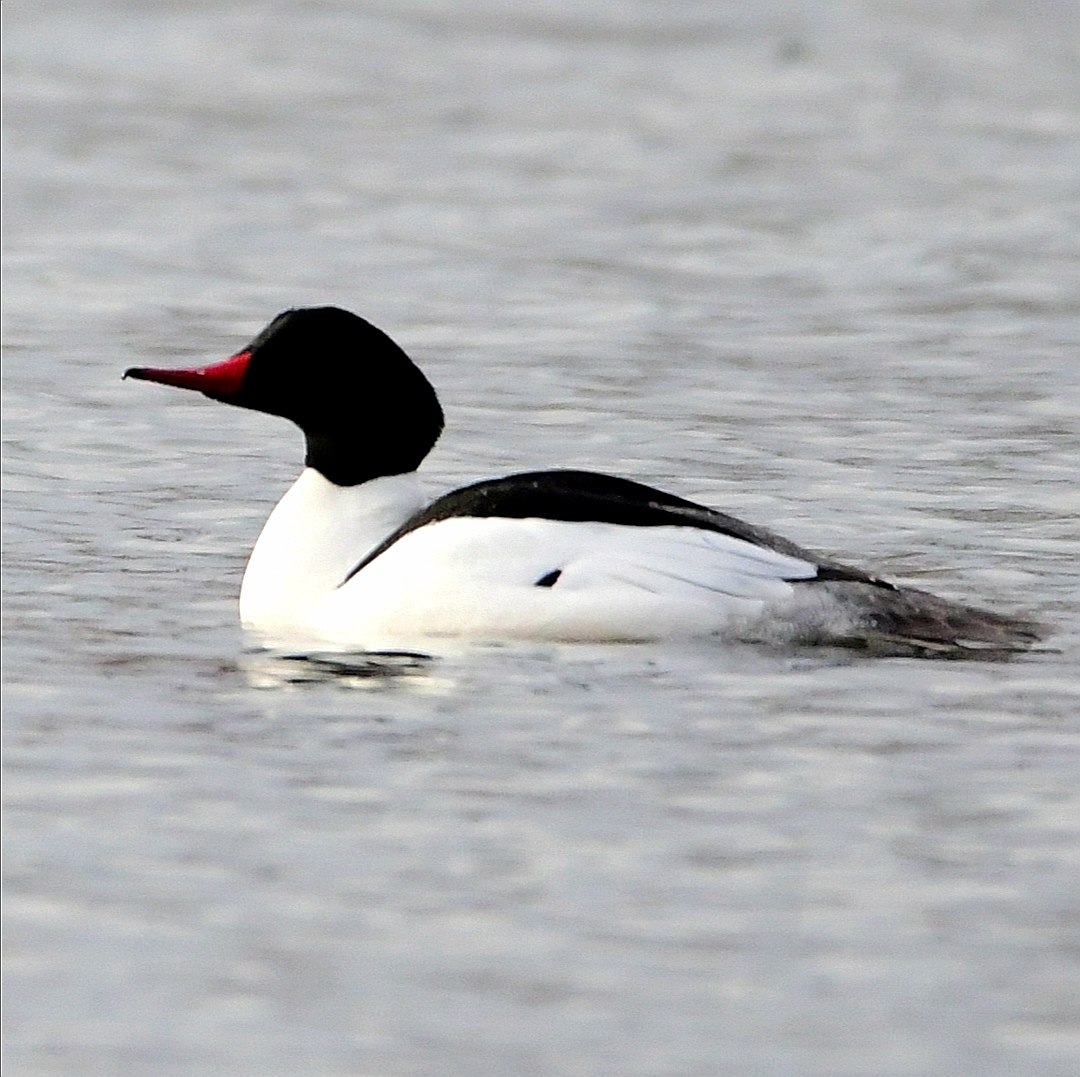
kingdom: Animalia
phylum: Chordata
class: Aves
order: Anseriformes
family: Anatidae
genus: Mergus
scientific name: Mergus merganser
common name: Common merganser
